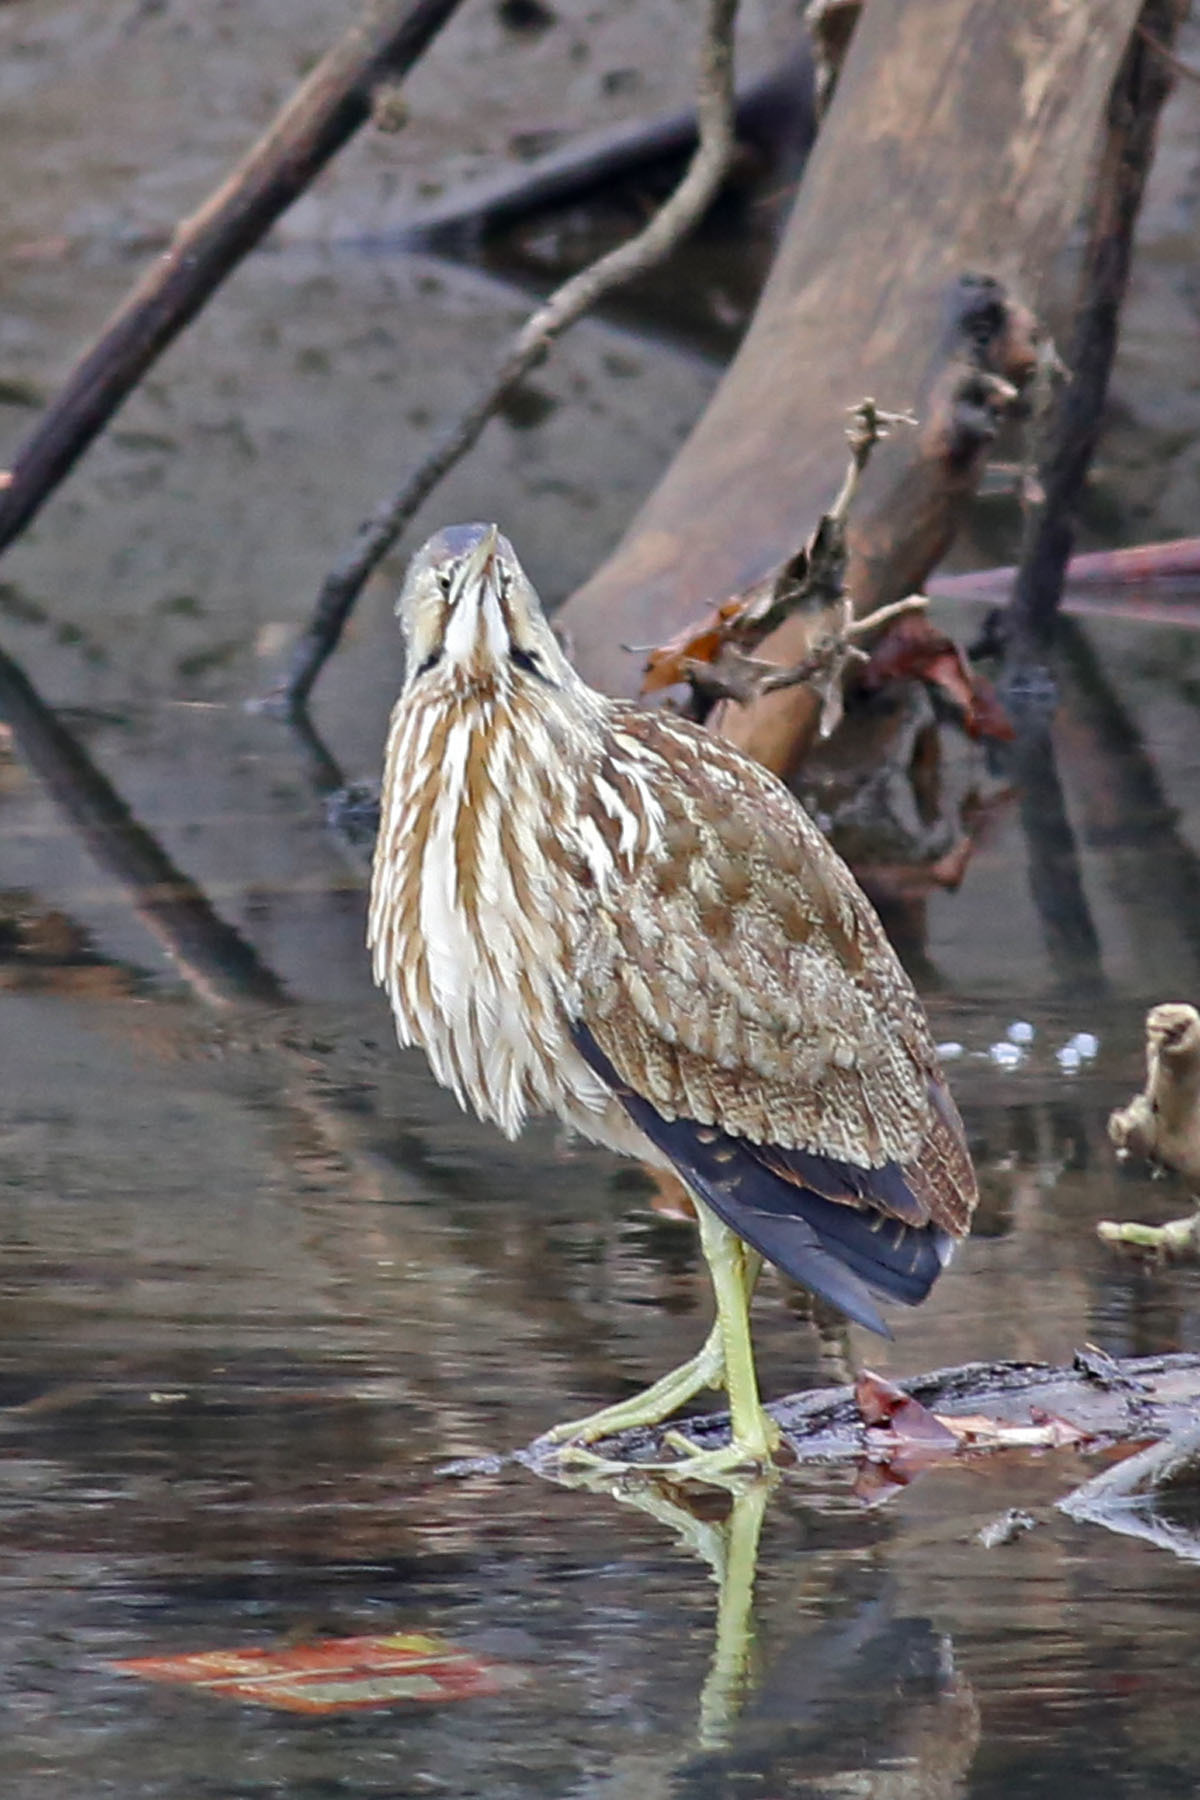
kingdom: Animalia
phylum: Chordata
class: Aves
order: Pelecaniformes
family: Ardeidae
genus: Botaurus
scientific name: Botaurus lentiginosus
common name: American bittern
